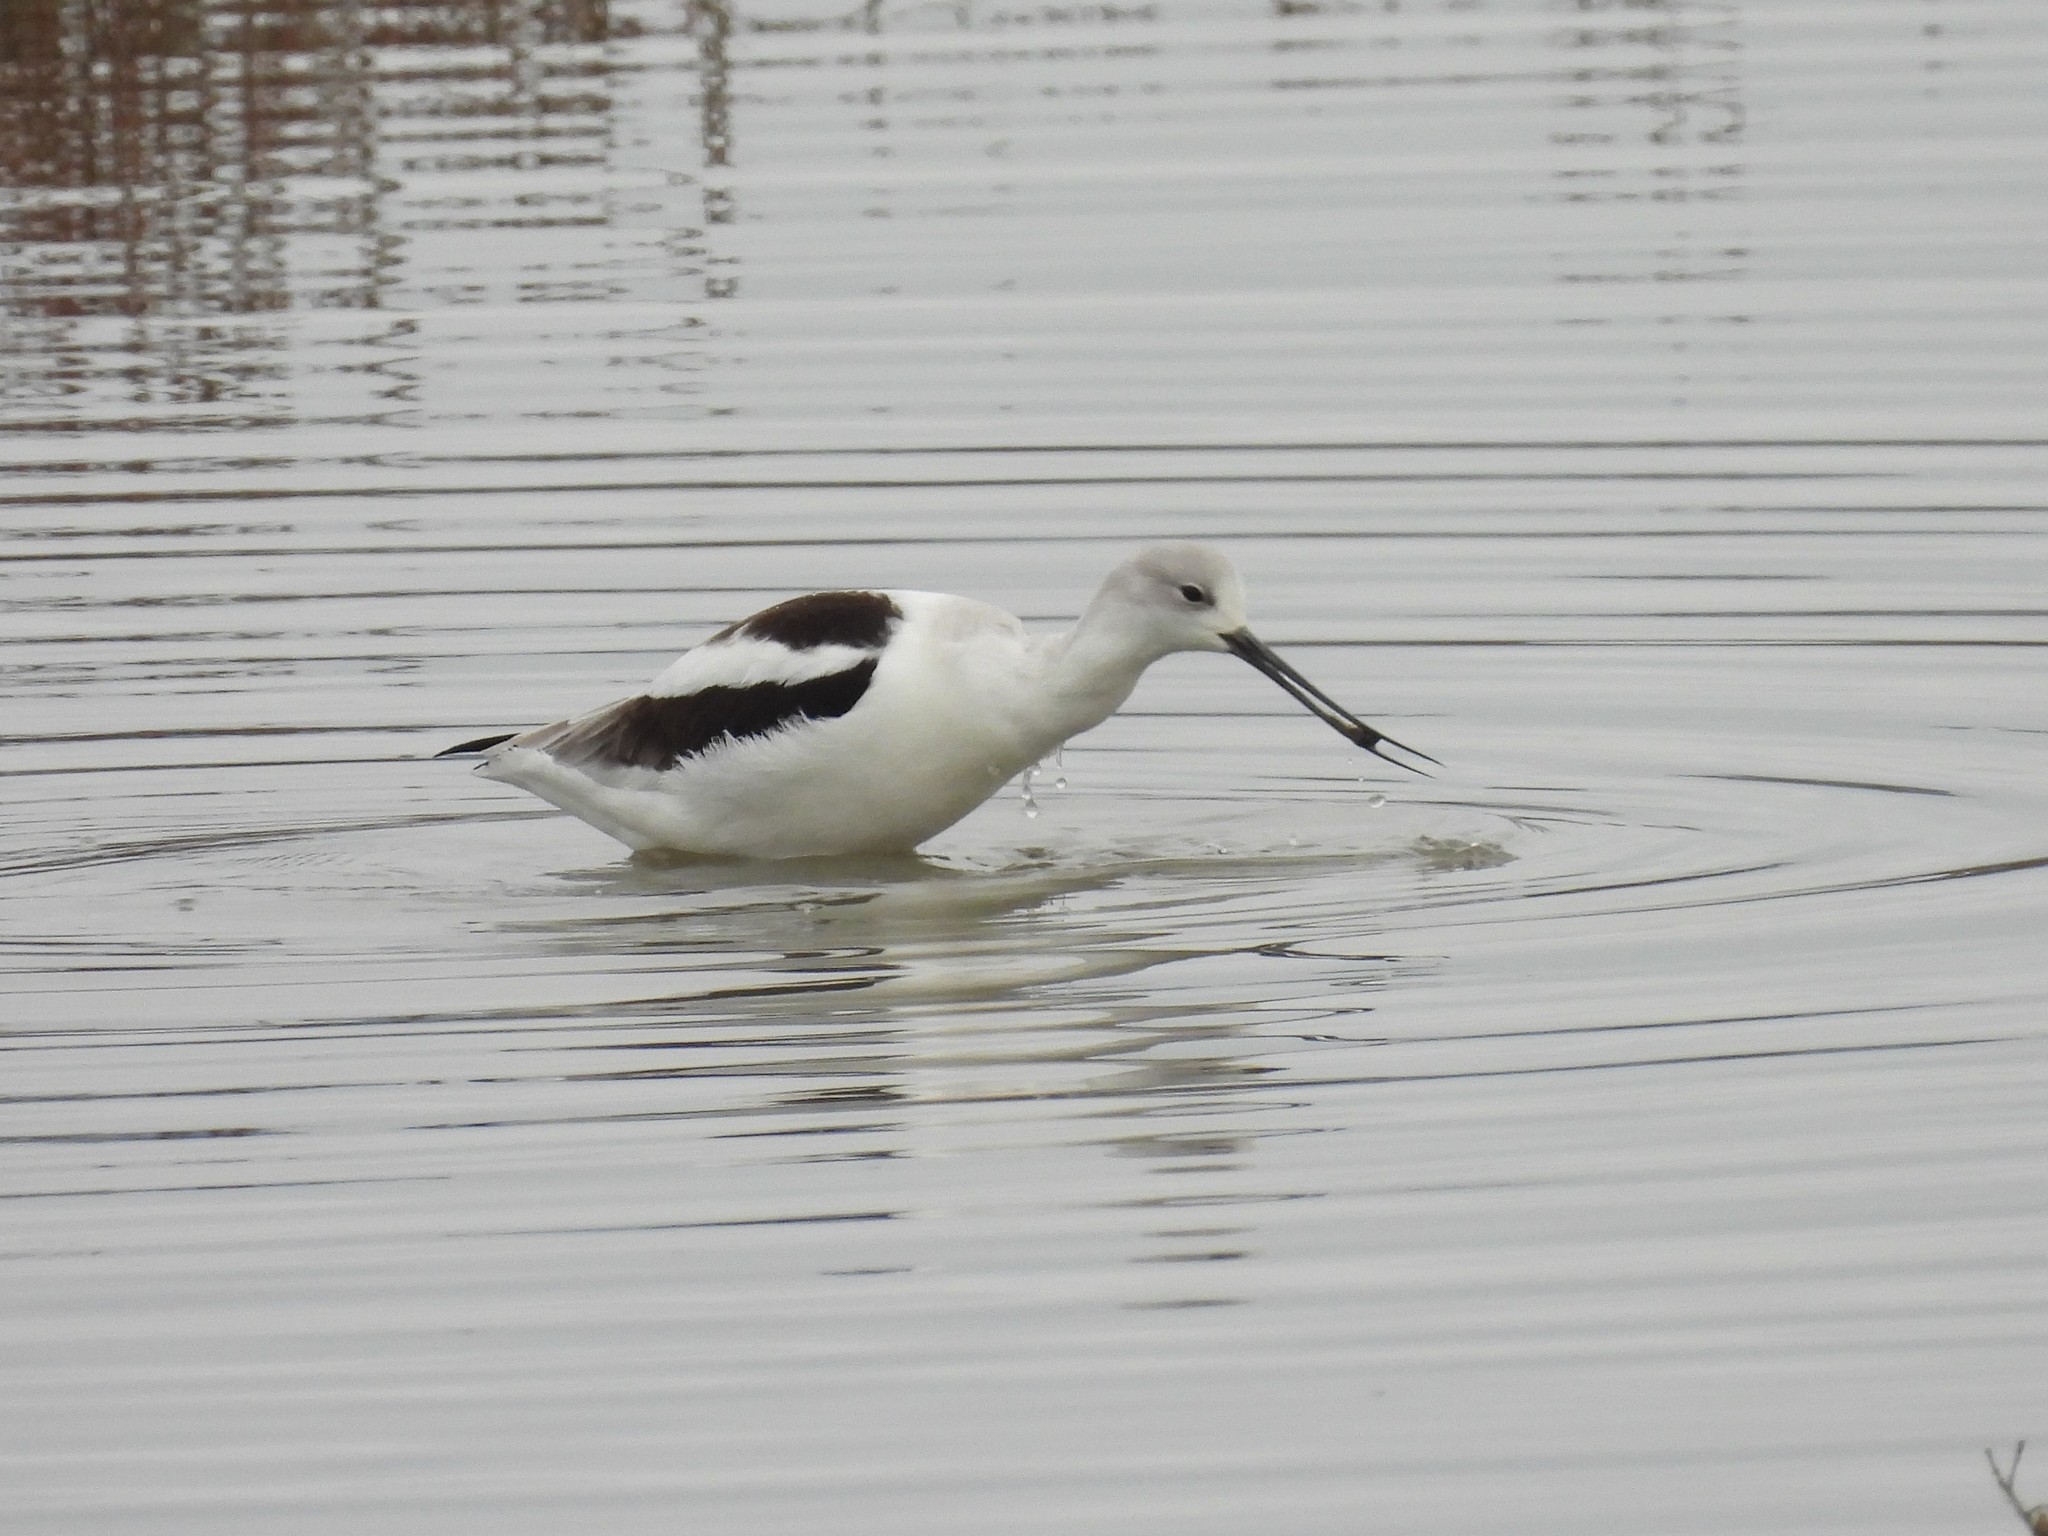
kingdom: Animalia
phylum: Chordata
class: Aves
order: Charadriiformes
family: Recurvirostridae
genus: Recurvirostra
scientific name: Recurvirostra americana
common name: American avocet
